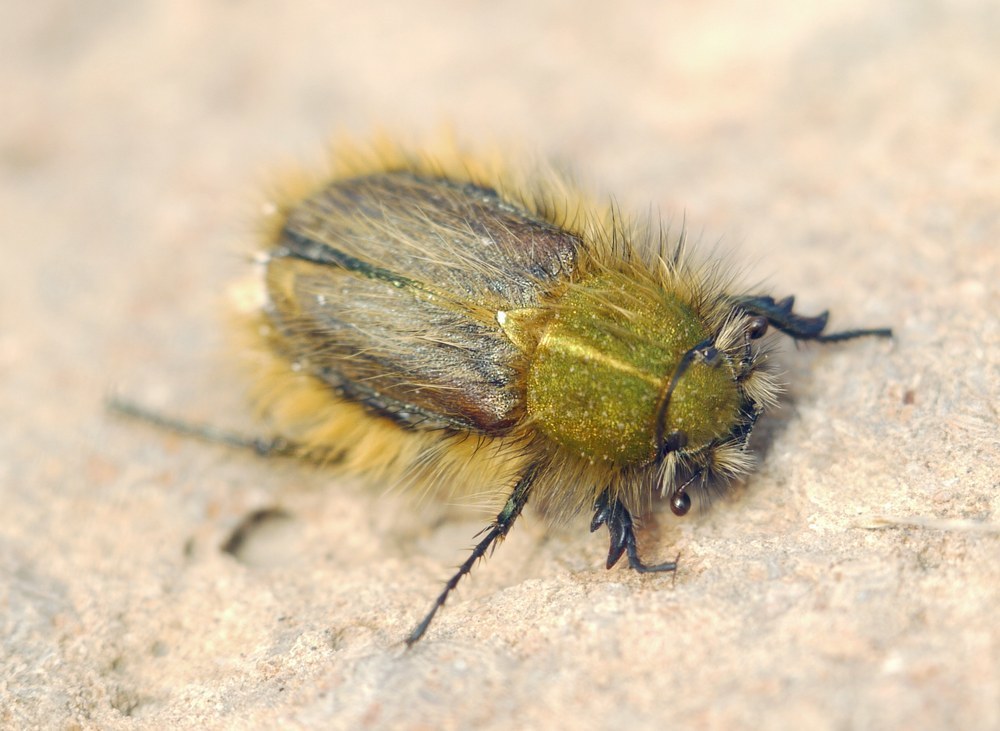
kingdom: Animalia
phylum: Arthropoda
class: Insecta
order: Coleoptera
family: Glaphyridae
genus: Pygopleurus
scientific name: Pygopleurus vulpes
